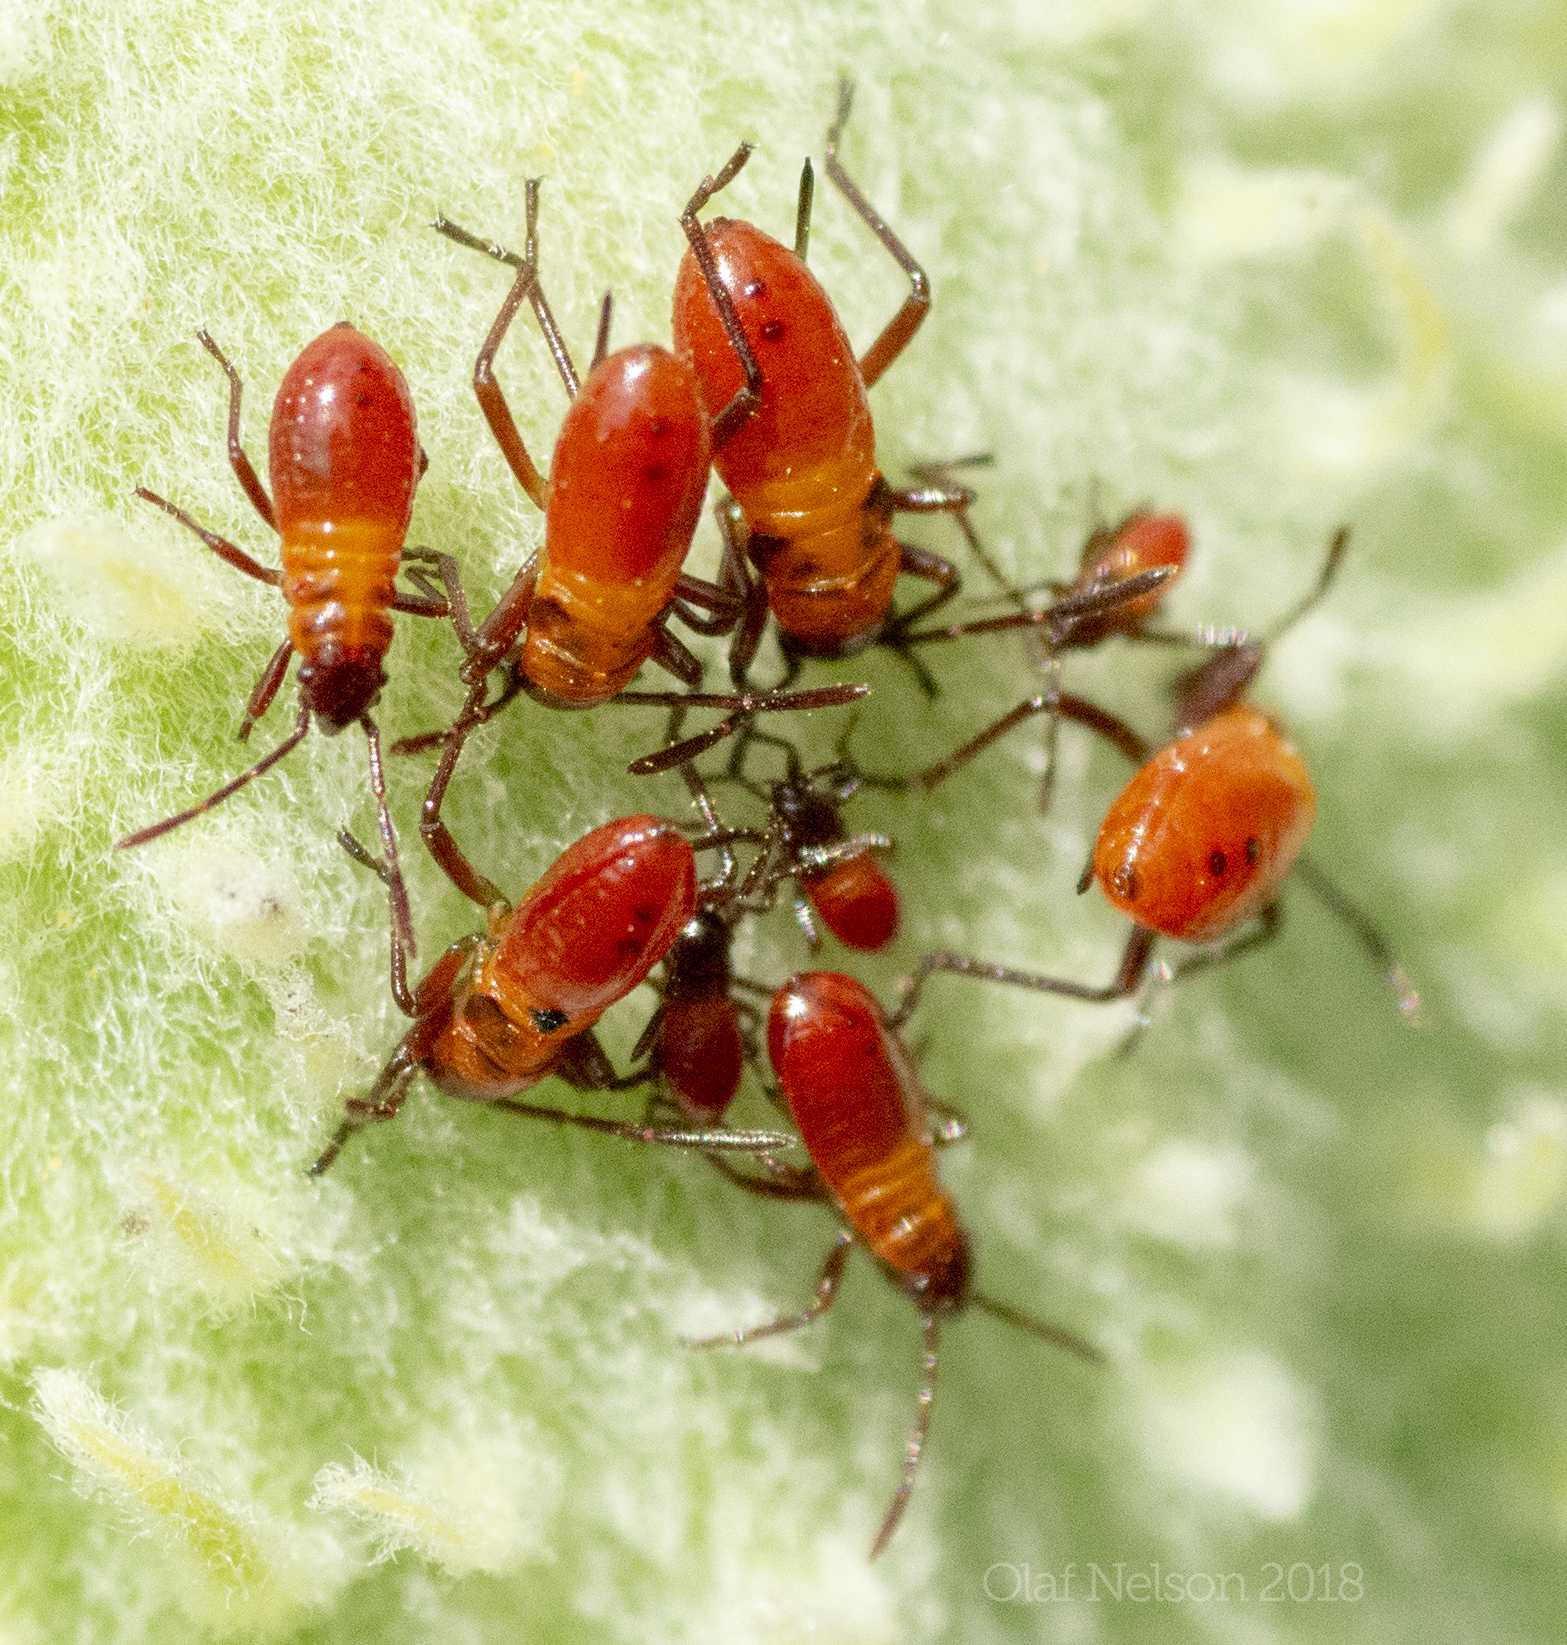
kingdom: Animalia
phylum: Arthropoda
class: Insecta
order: Hemiptera
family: Lygaeidae
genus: Oncopeltus
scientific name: Oncopeltus fasciatus
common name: Large milkweed bug
